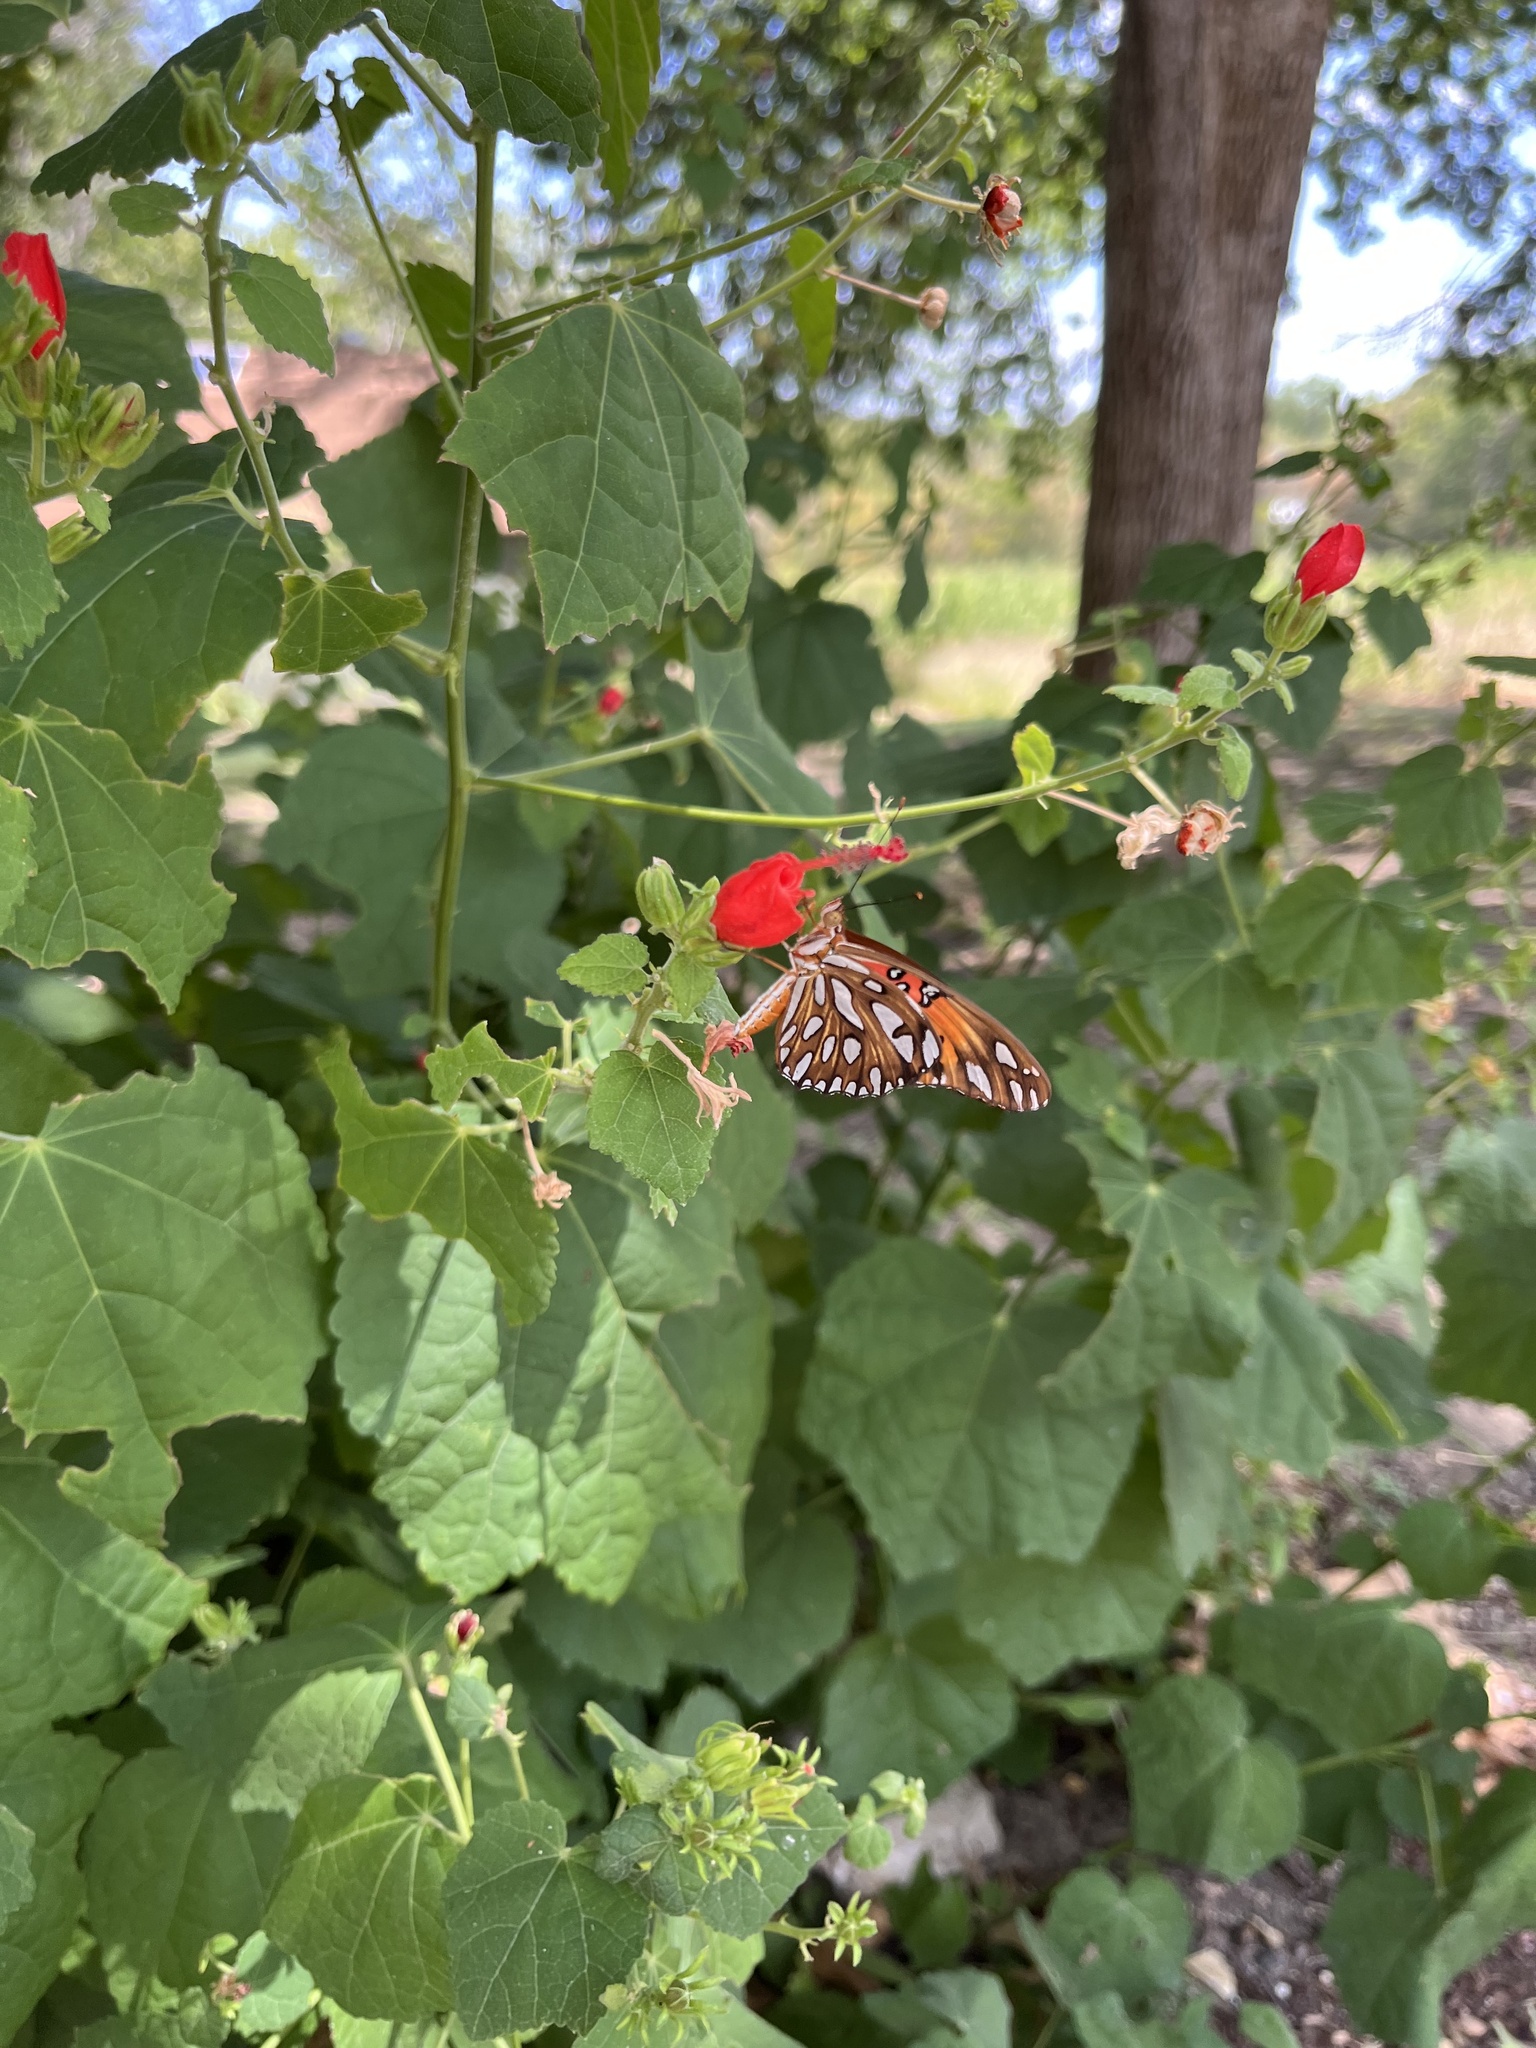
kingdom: Animalia
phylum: Arthropoda
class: Insecta
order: Lepidoptera
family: Nymphalidae
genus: Dione
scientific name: Dione vanillae
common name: Gulf fritillary
